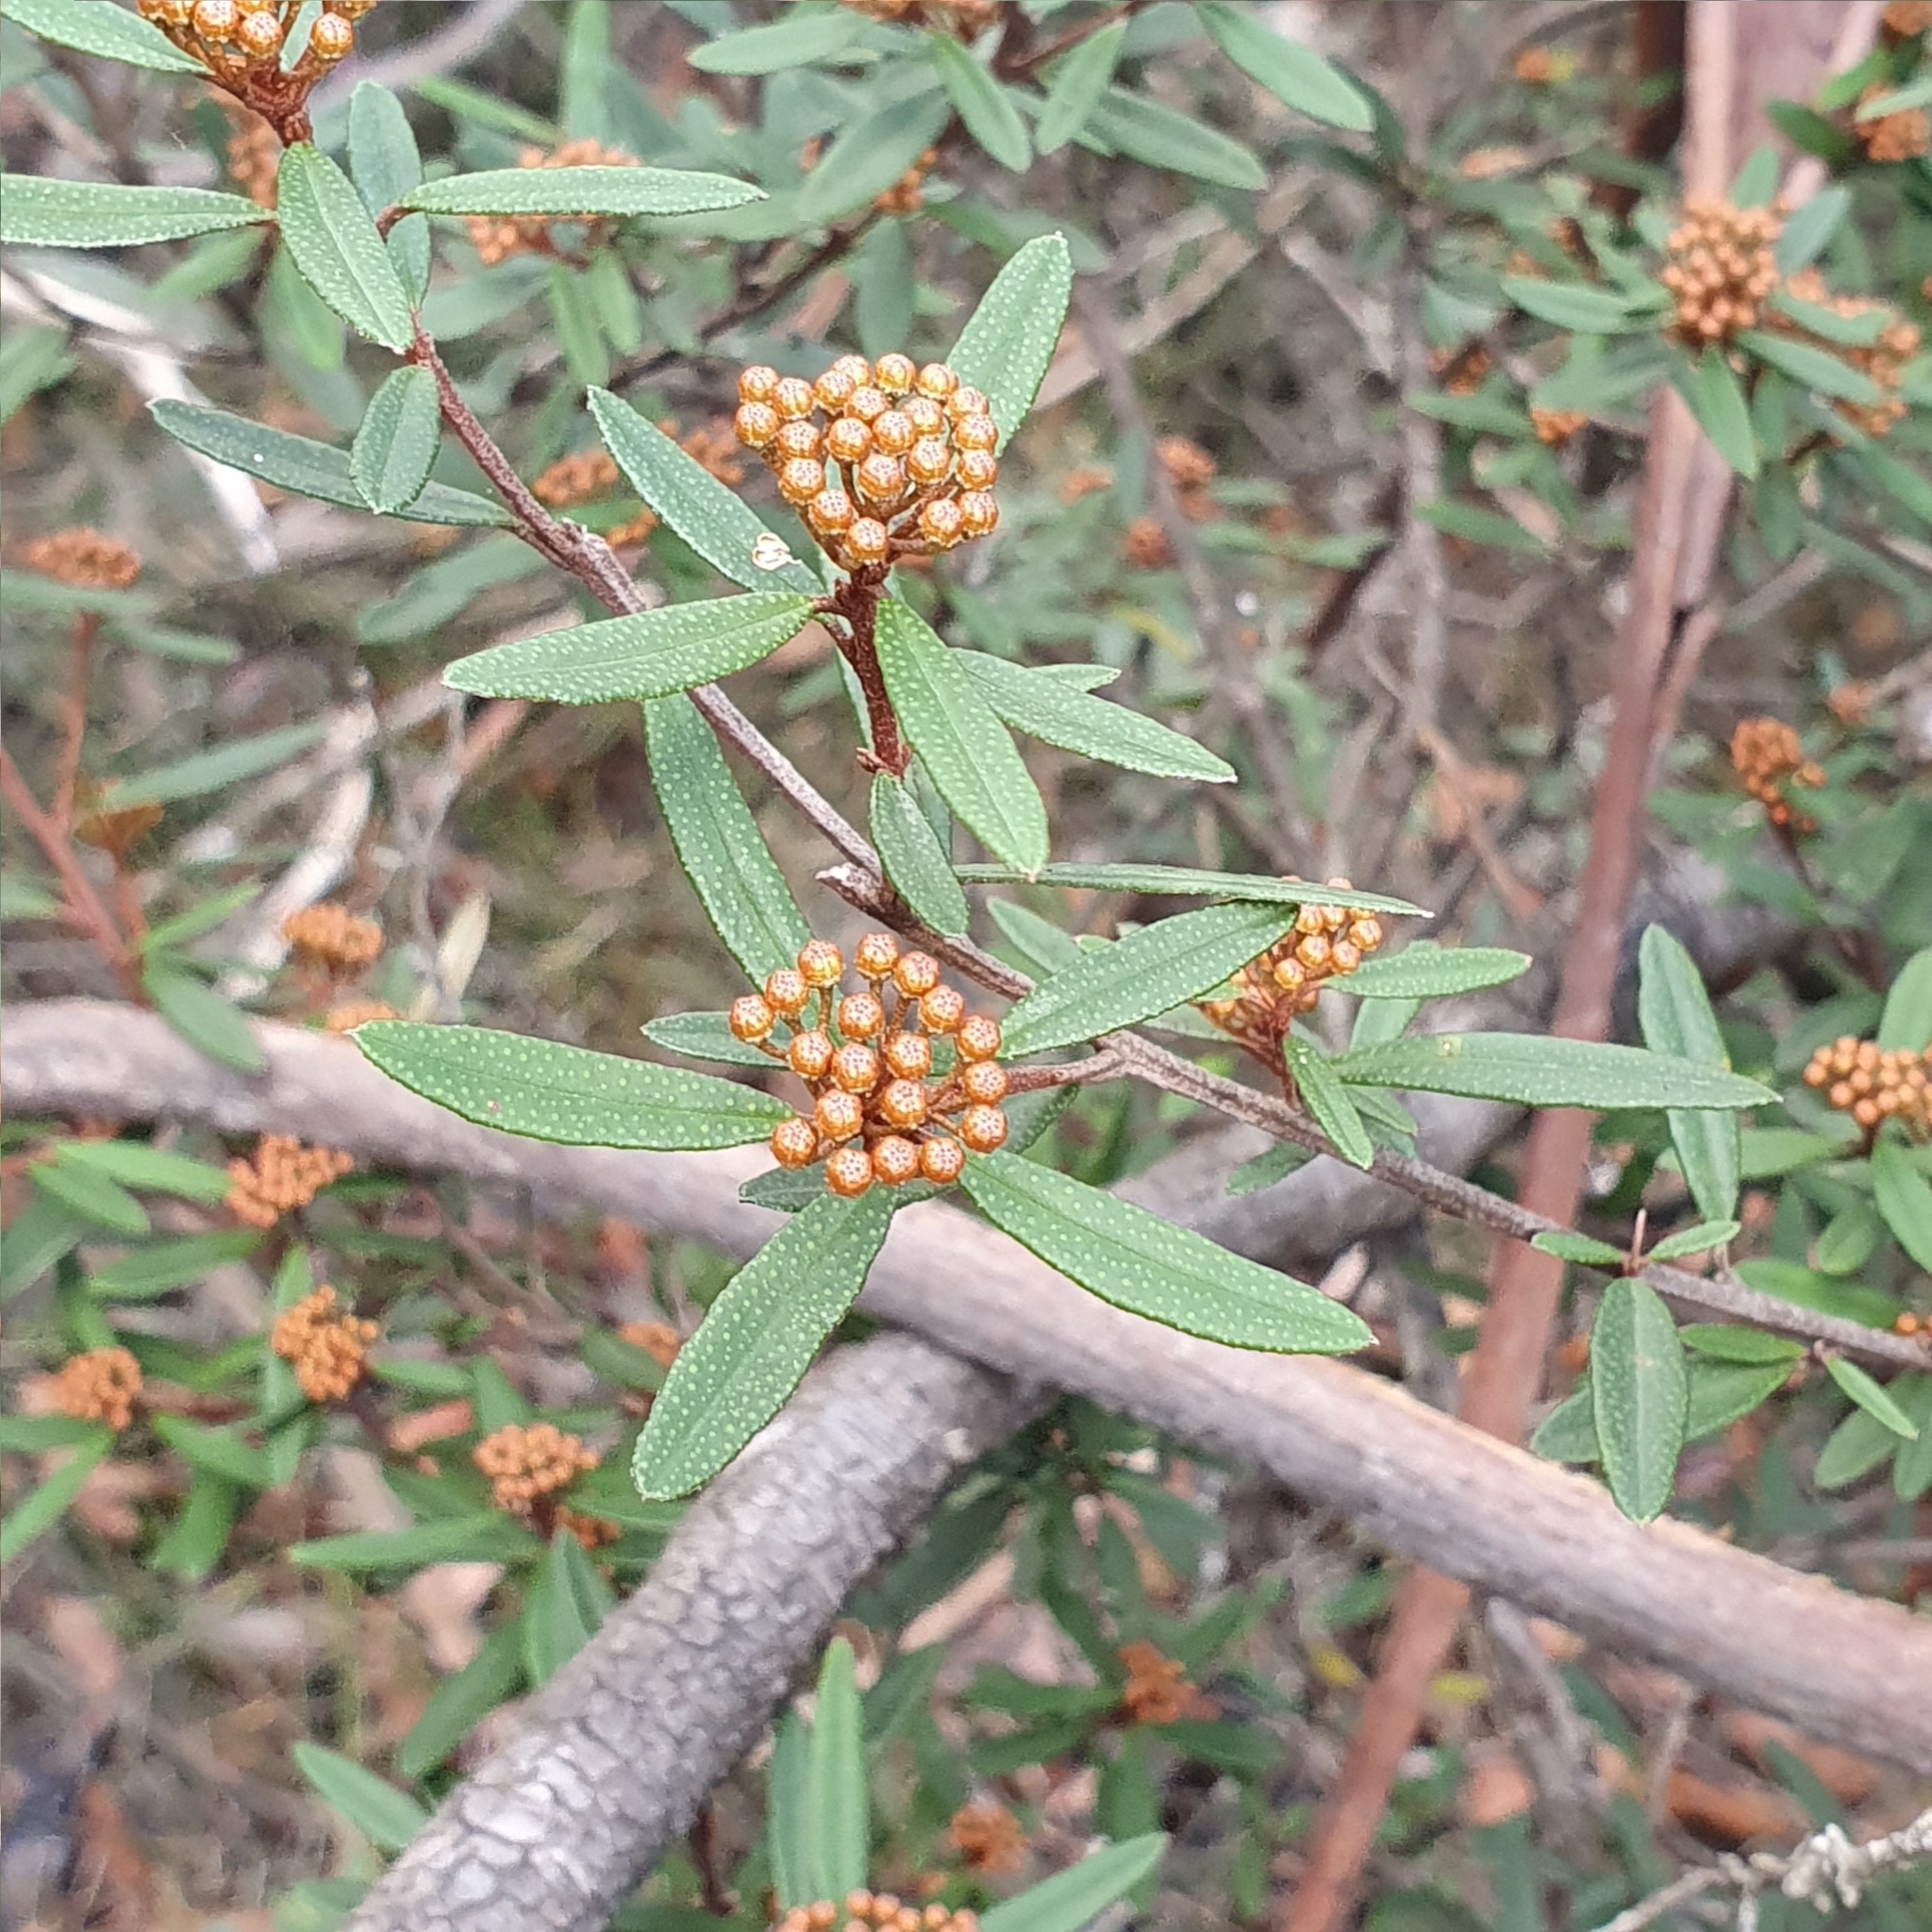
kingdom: Plantae
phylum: Tracheophyta
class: Magnoliopsida
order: Sapindales
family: Rutaceae
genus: Phebalium
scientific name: Phebalium squamulosum
